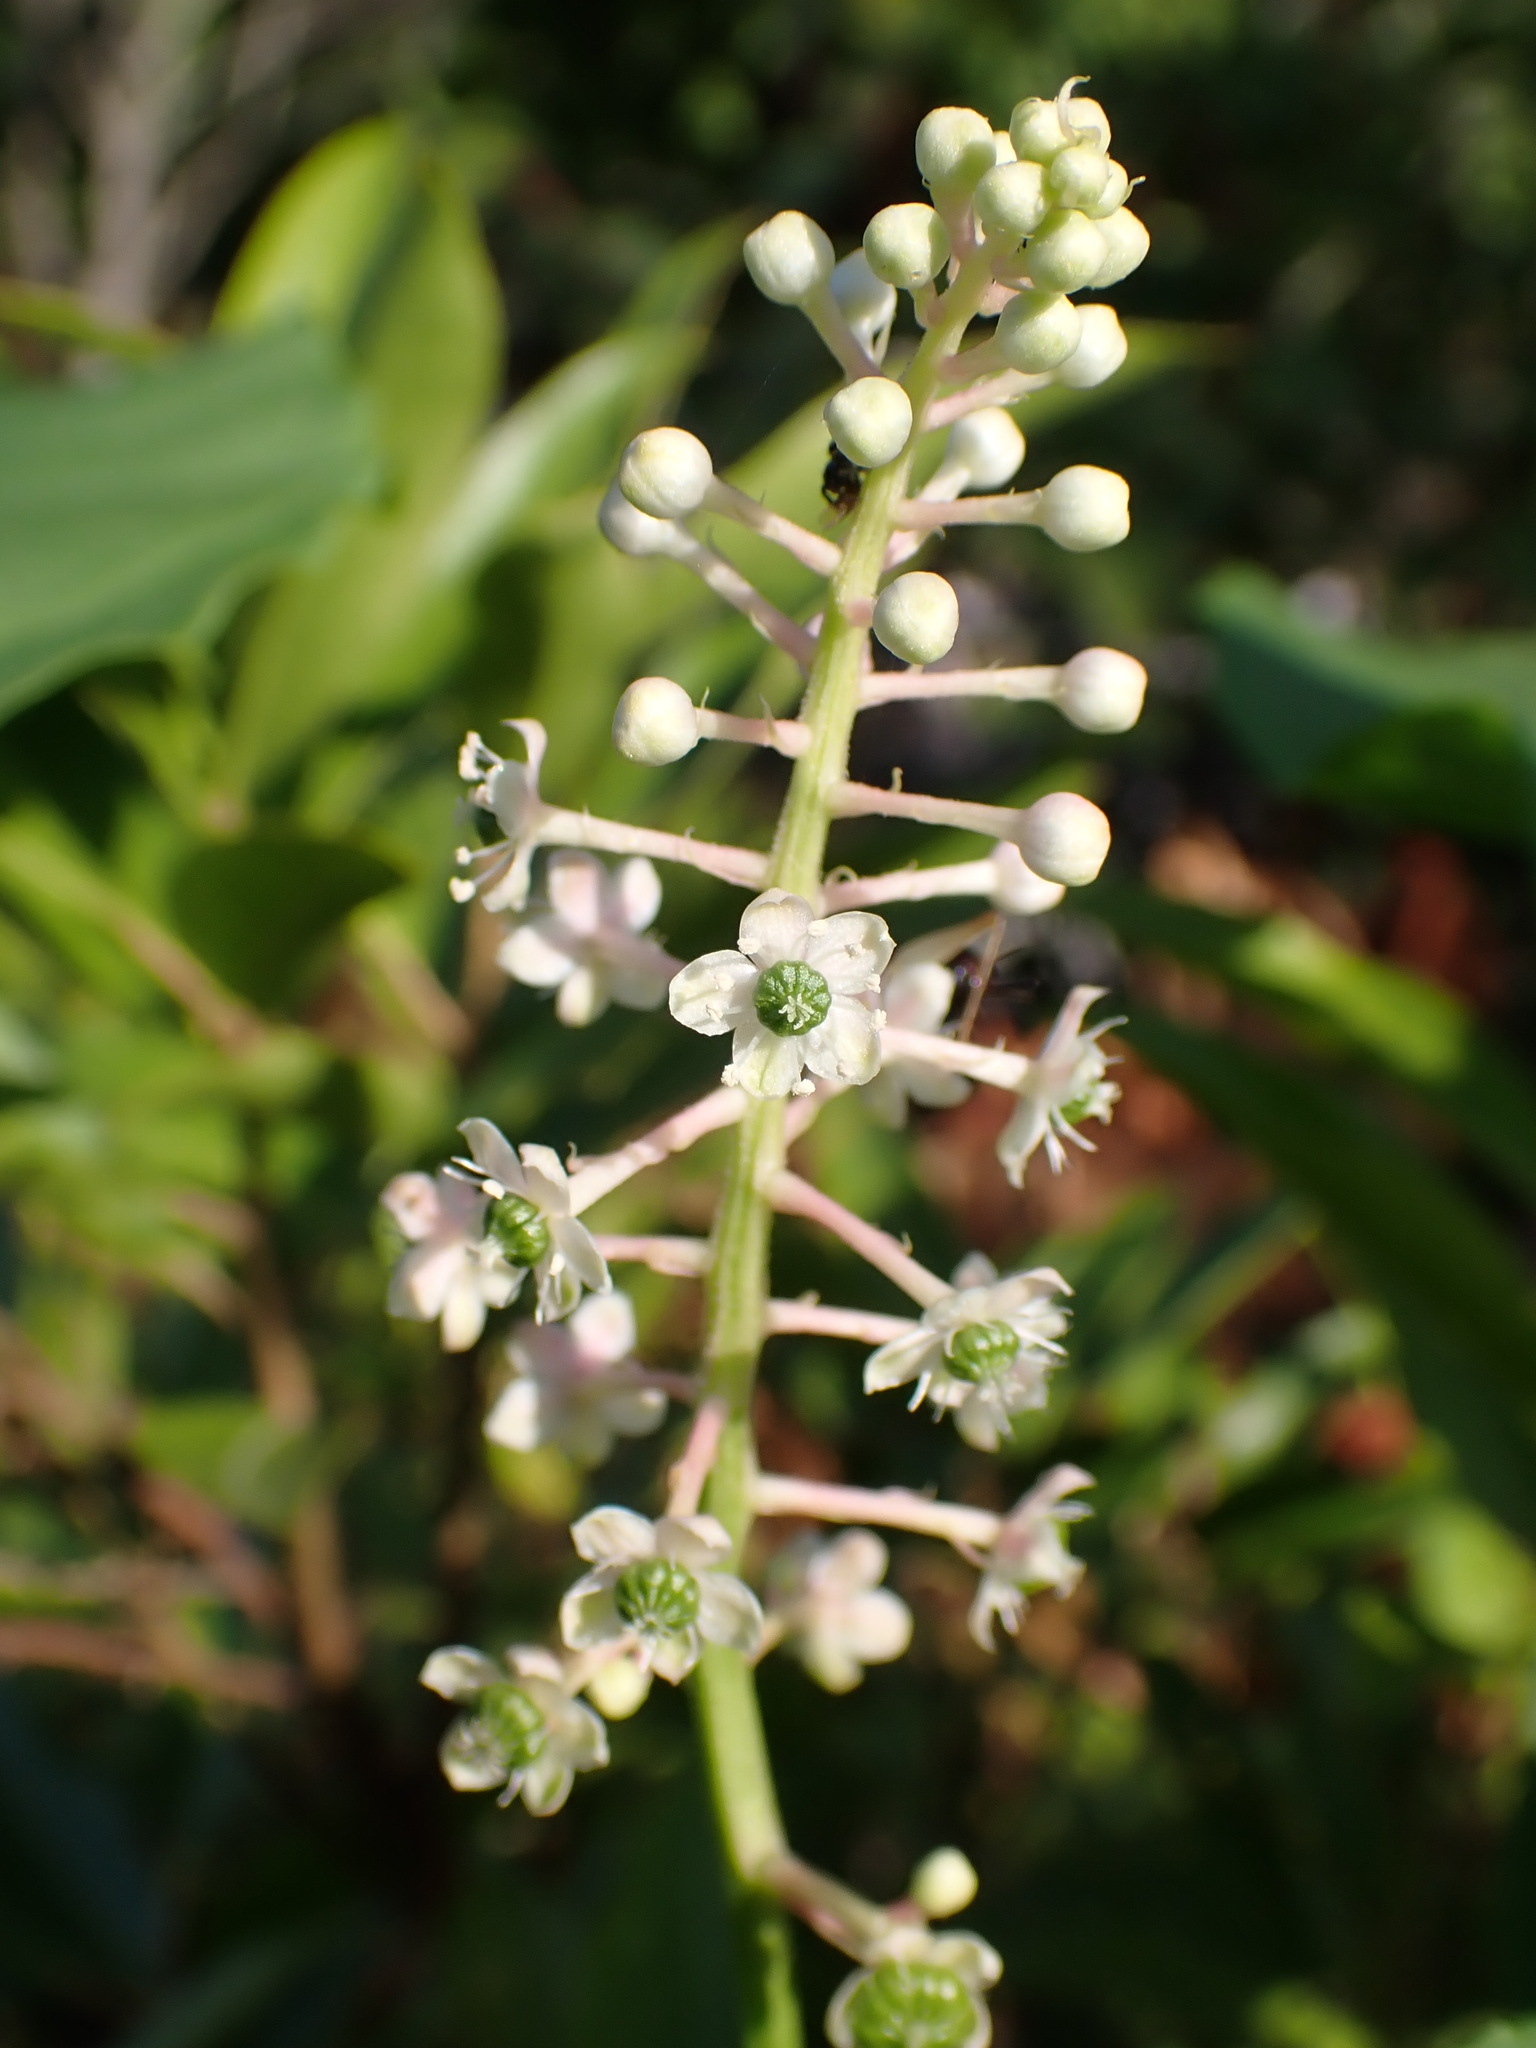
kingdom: Plantae
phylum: Tracheophyta
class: Magnoliopsida
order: Caryophyllales
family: Phytolaccaceae
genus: Phytolacca
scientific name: Phytolacca americana
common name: American pokeweed
